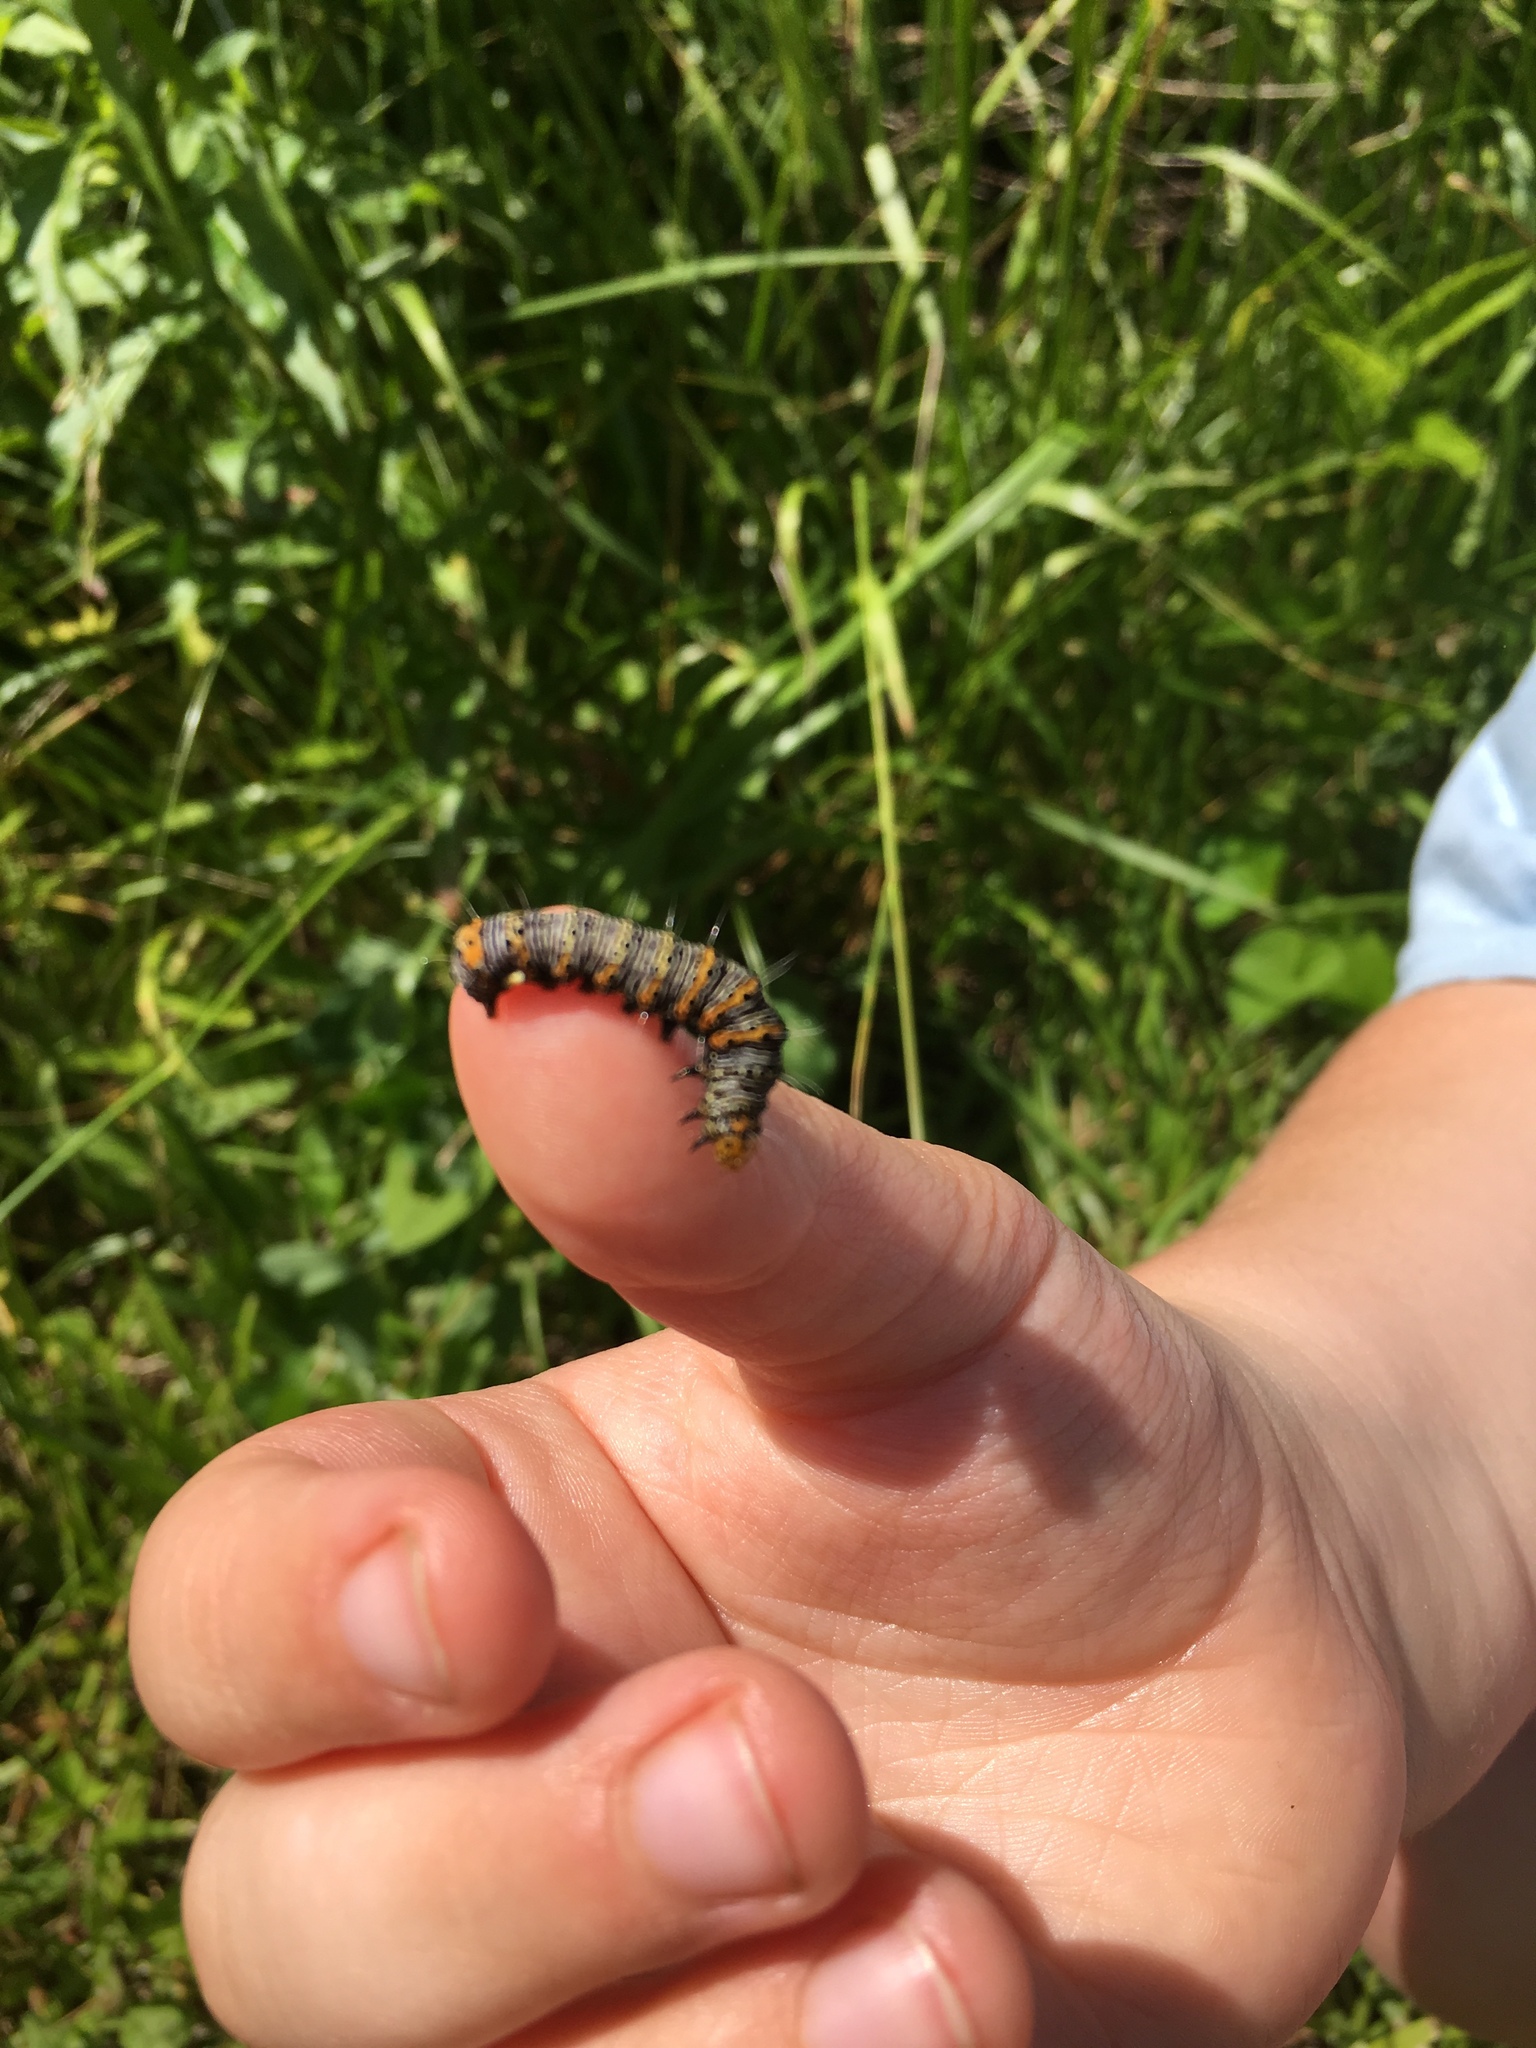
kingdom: Animalia
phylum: Arthropoda
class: Insecta
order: Lepidoptera
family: Noctuidae
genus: Alypia
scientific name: Alypia octomaculata
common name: Eight-spotted forester
